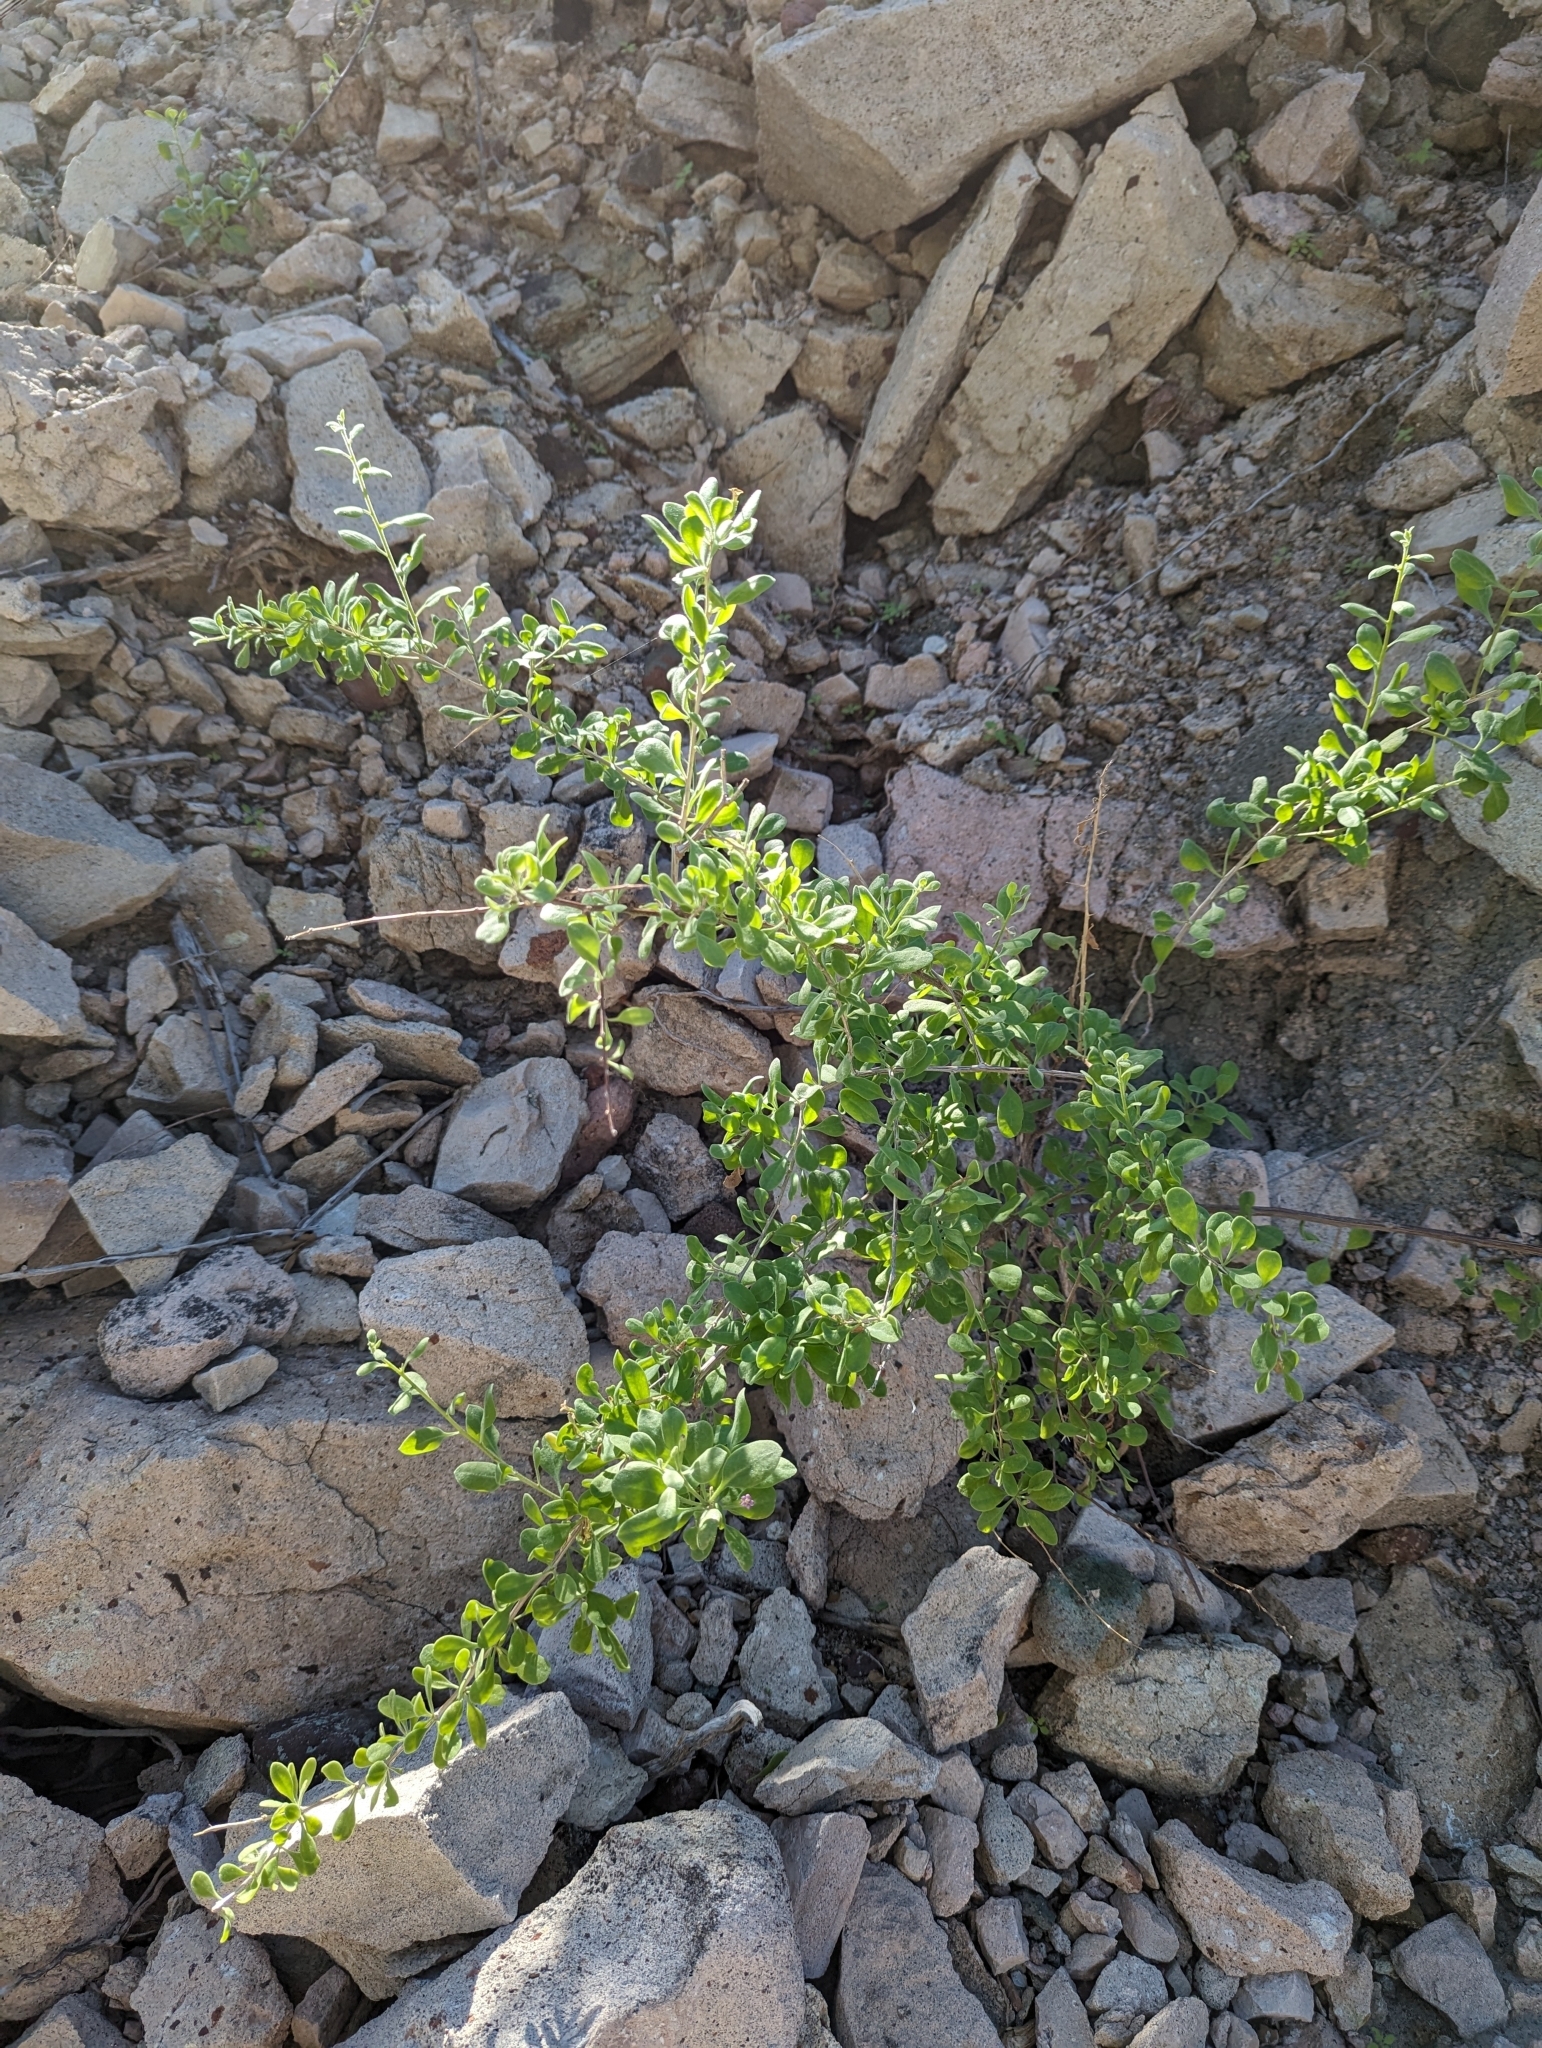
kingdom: Plantae
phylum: Tracheophyta
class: Magnoliopsida
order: Zygophyllales
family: Zygophyllaceae
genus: Viscainoa
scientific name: Viscainoa geniculata
